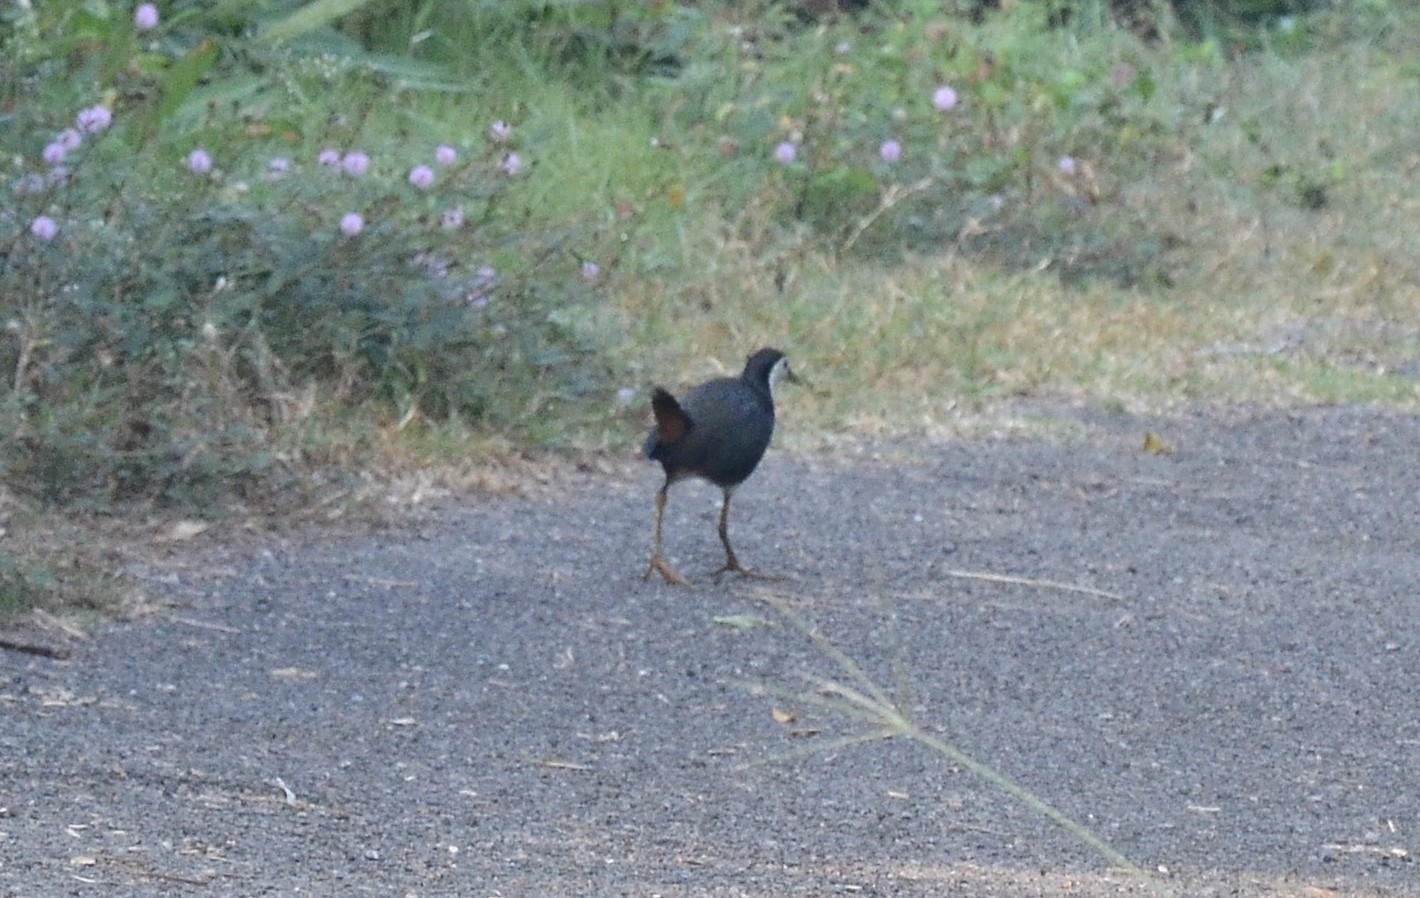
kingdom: Animalia
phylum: Chordata
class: Aves
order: Gruiformes
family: Rallidae
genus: Amaurornis
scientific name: Amaurornis phoenicurus
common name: White-breasted waterhen
